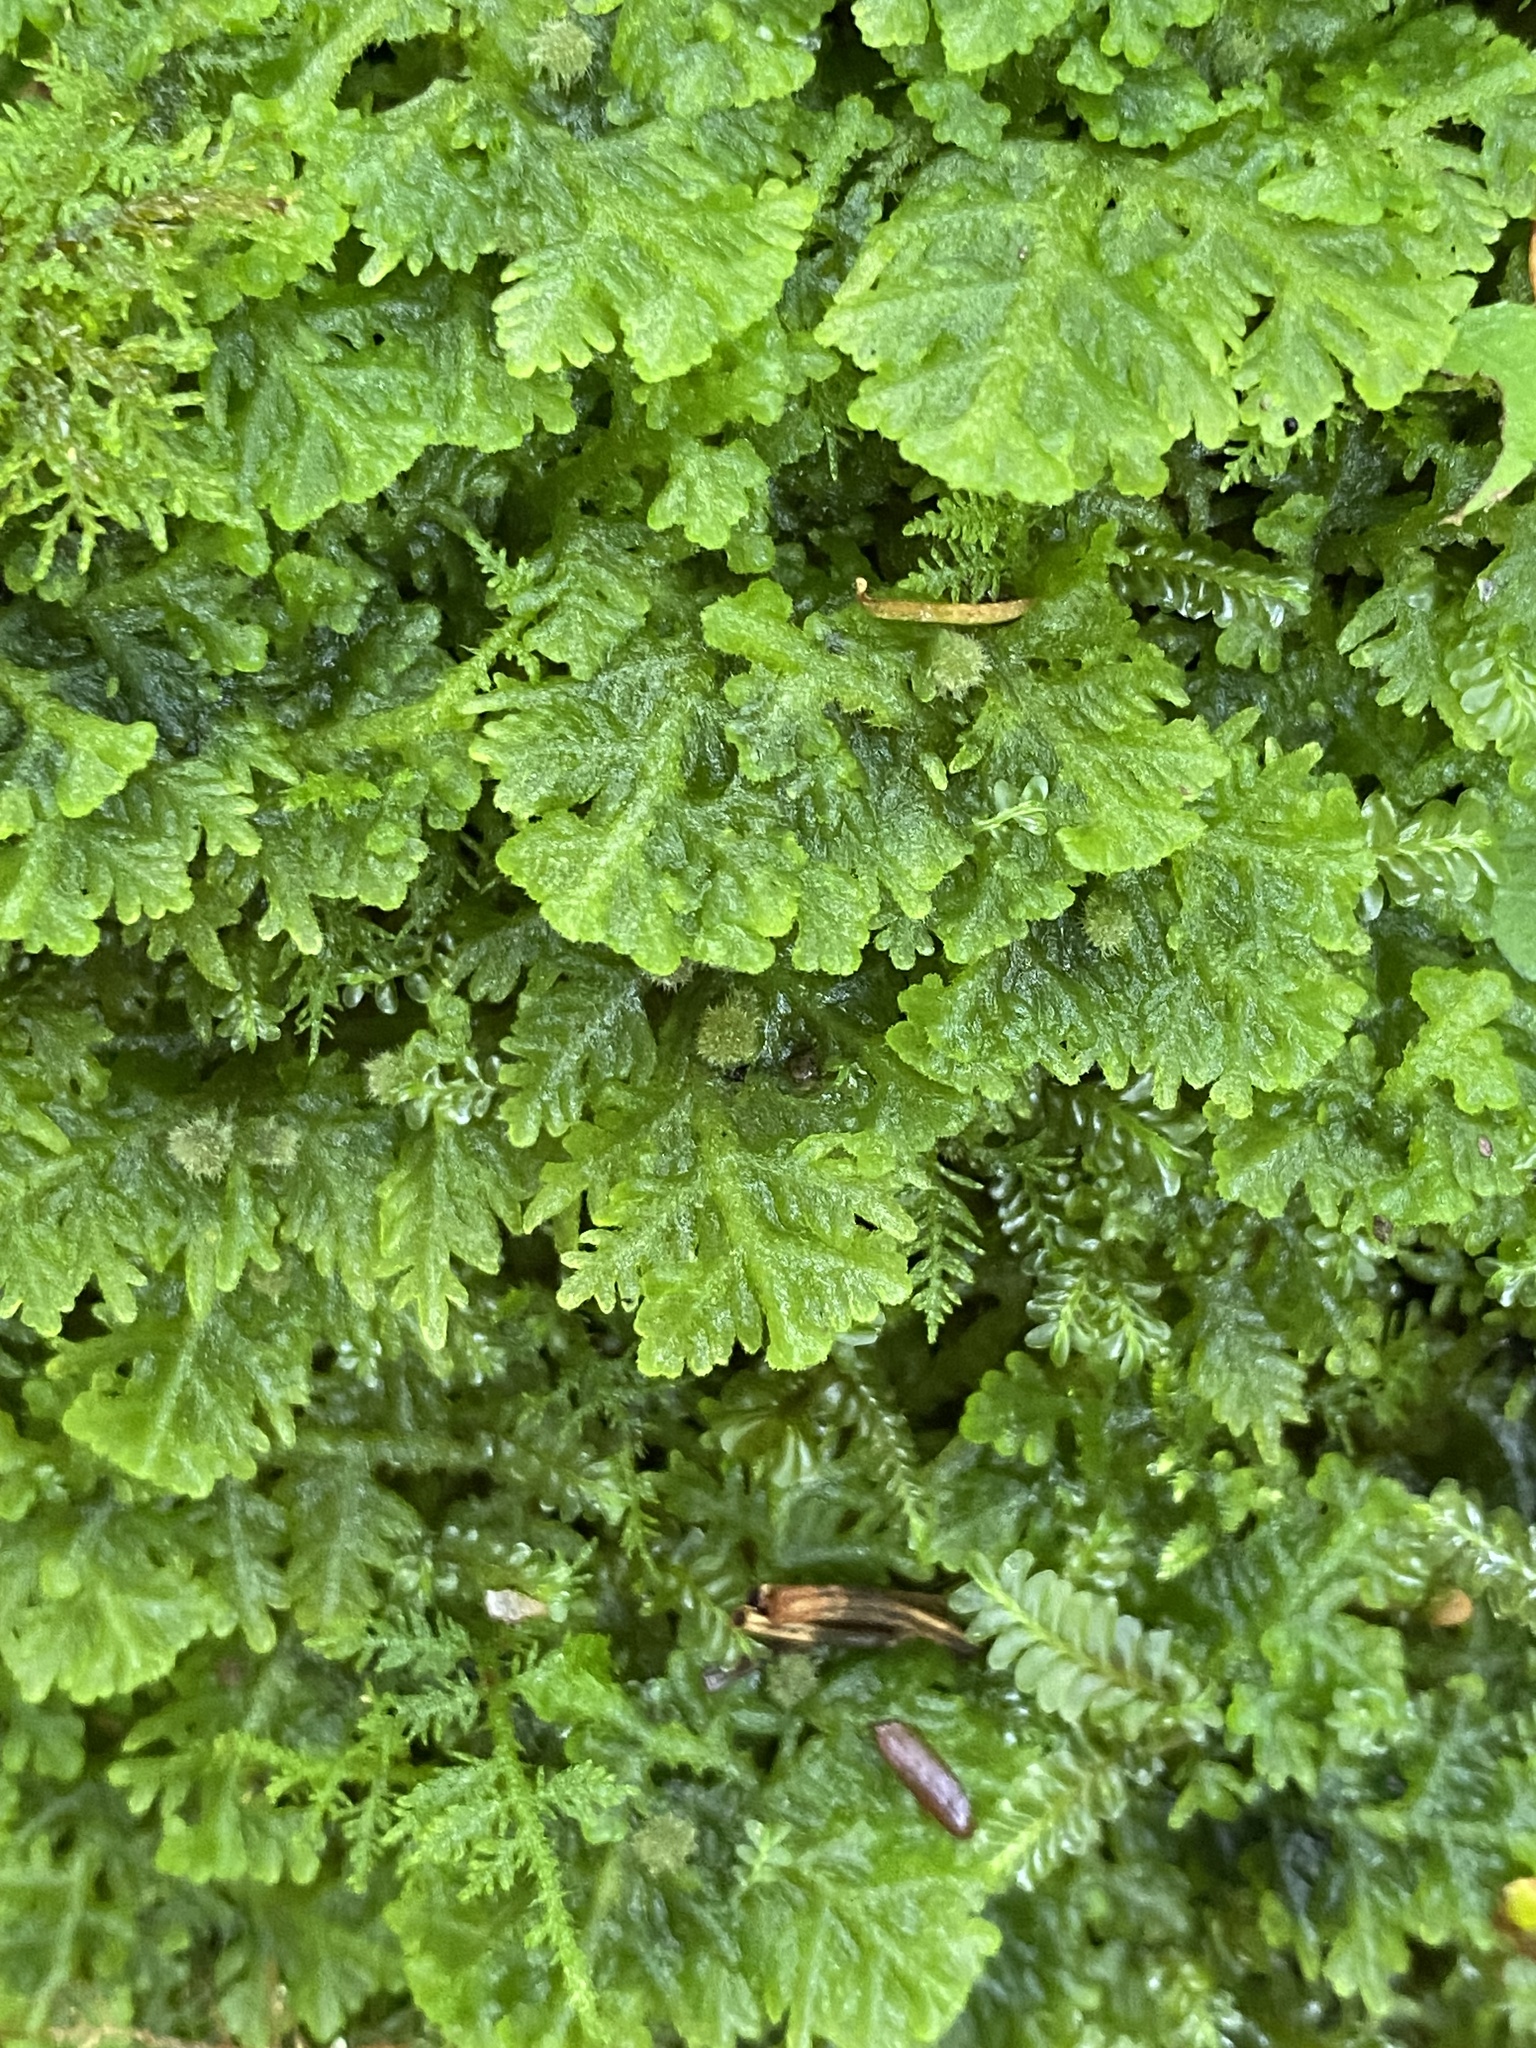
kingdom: Plantae
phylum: Marchantiophyta
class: Jungermanniopsida
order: Jungermanniales
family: Trichocoleaceae
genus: Trichocolea
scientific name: Trichocolea tomentella
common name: Woolly liverwort
